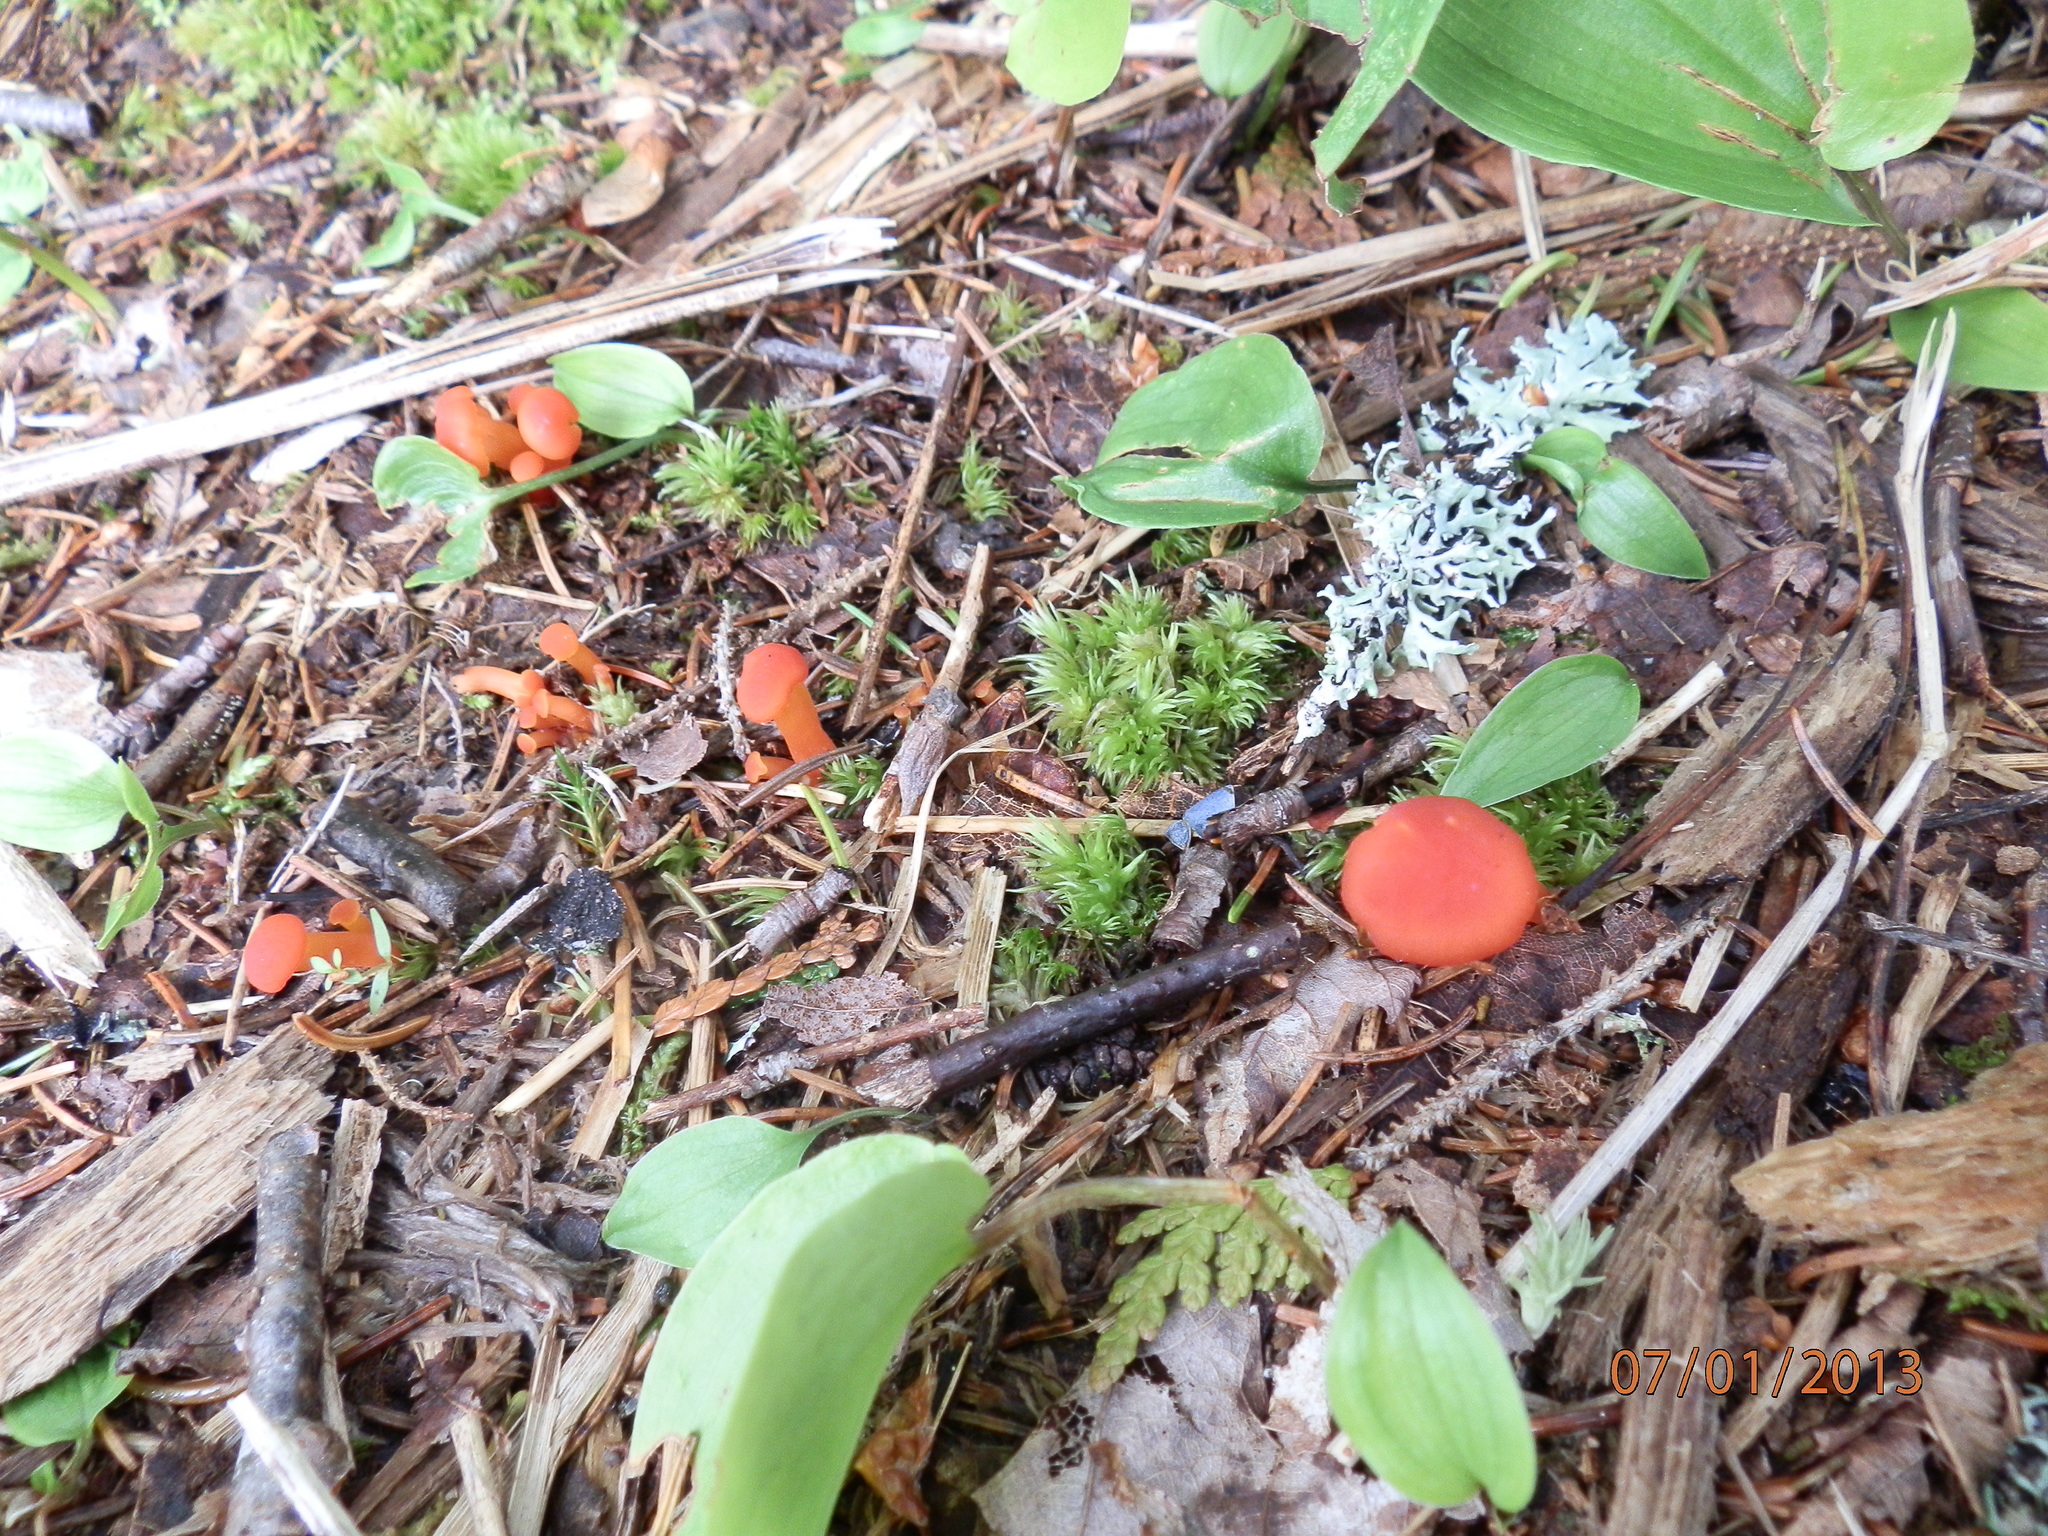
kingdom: Fungi
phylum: Basidiomycota
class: Agaricomycetes
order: Agaricales
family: Hygrophoraceae
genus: Hygrocybe
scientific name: Hygrocybe miniata
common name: Vermilion waxcap
